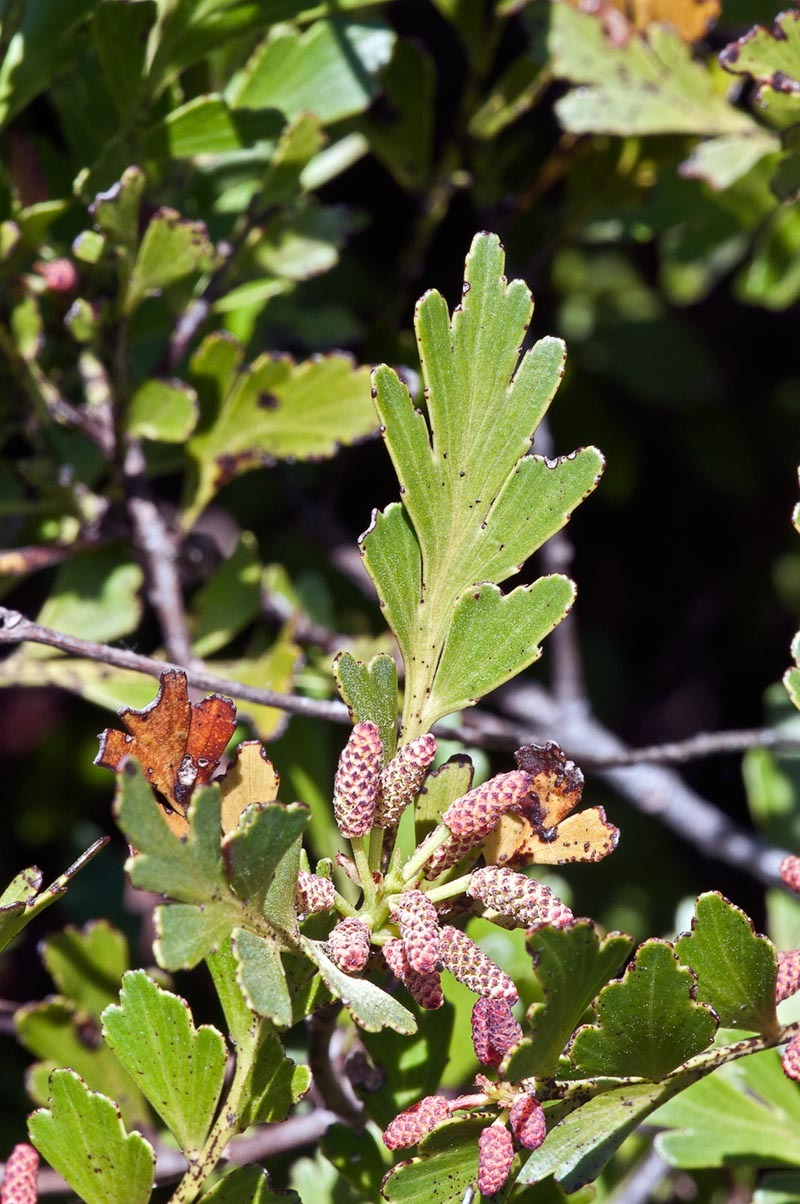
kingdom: Plantae
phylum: Tracheophyta
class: Pinopsida
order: Pinales
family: Phyllocladaceae
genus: Phyllocladus
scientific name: Phyllocladus trichomanoides
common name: Celery pine
